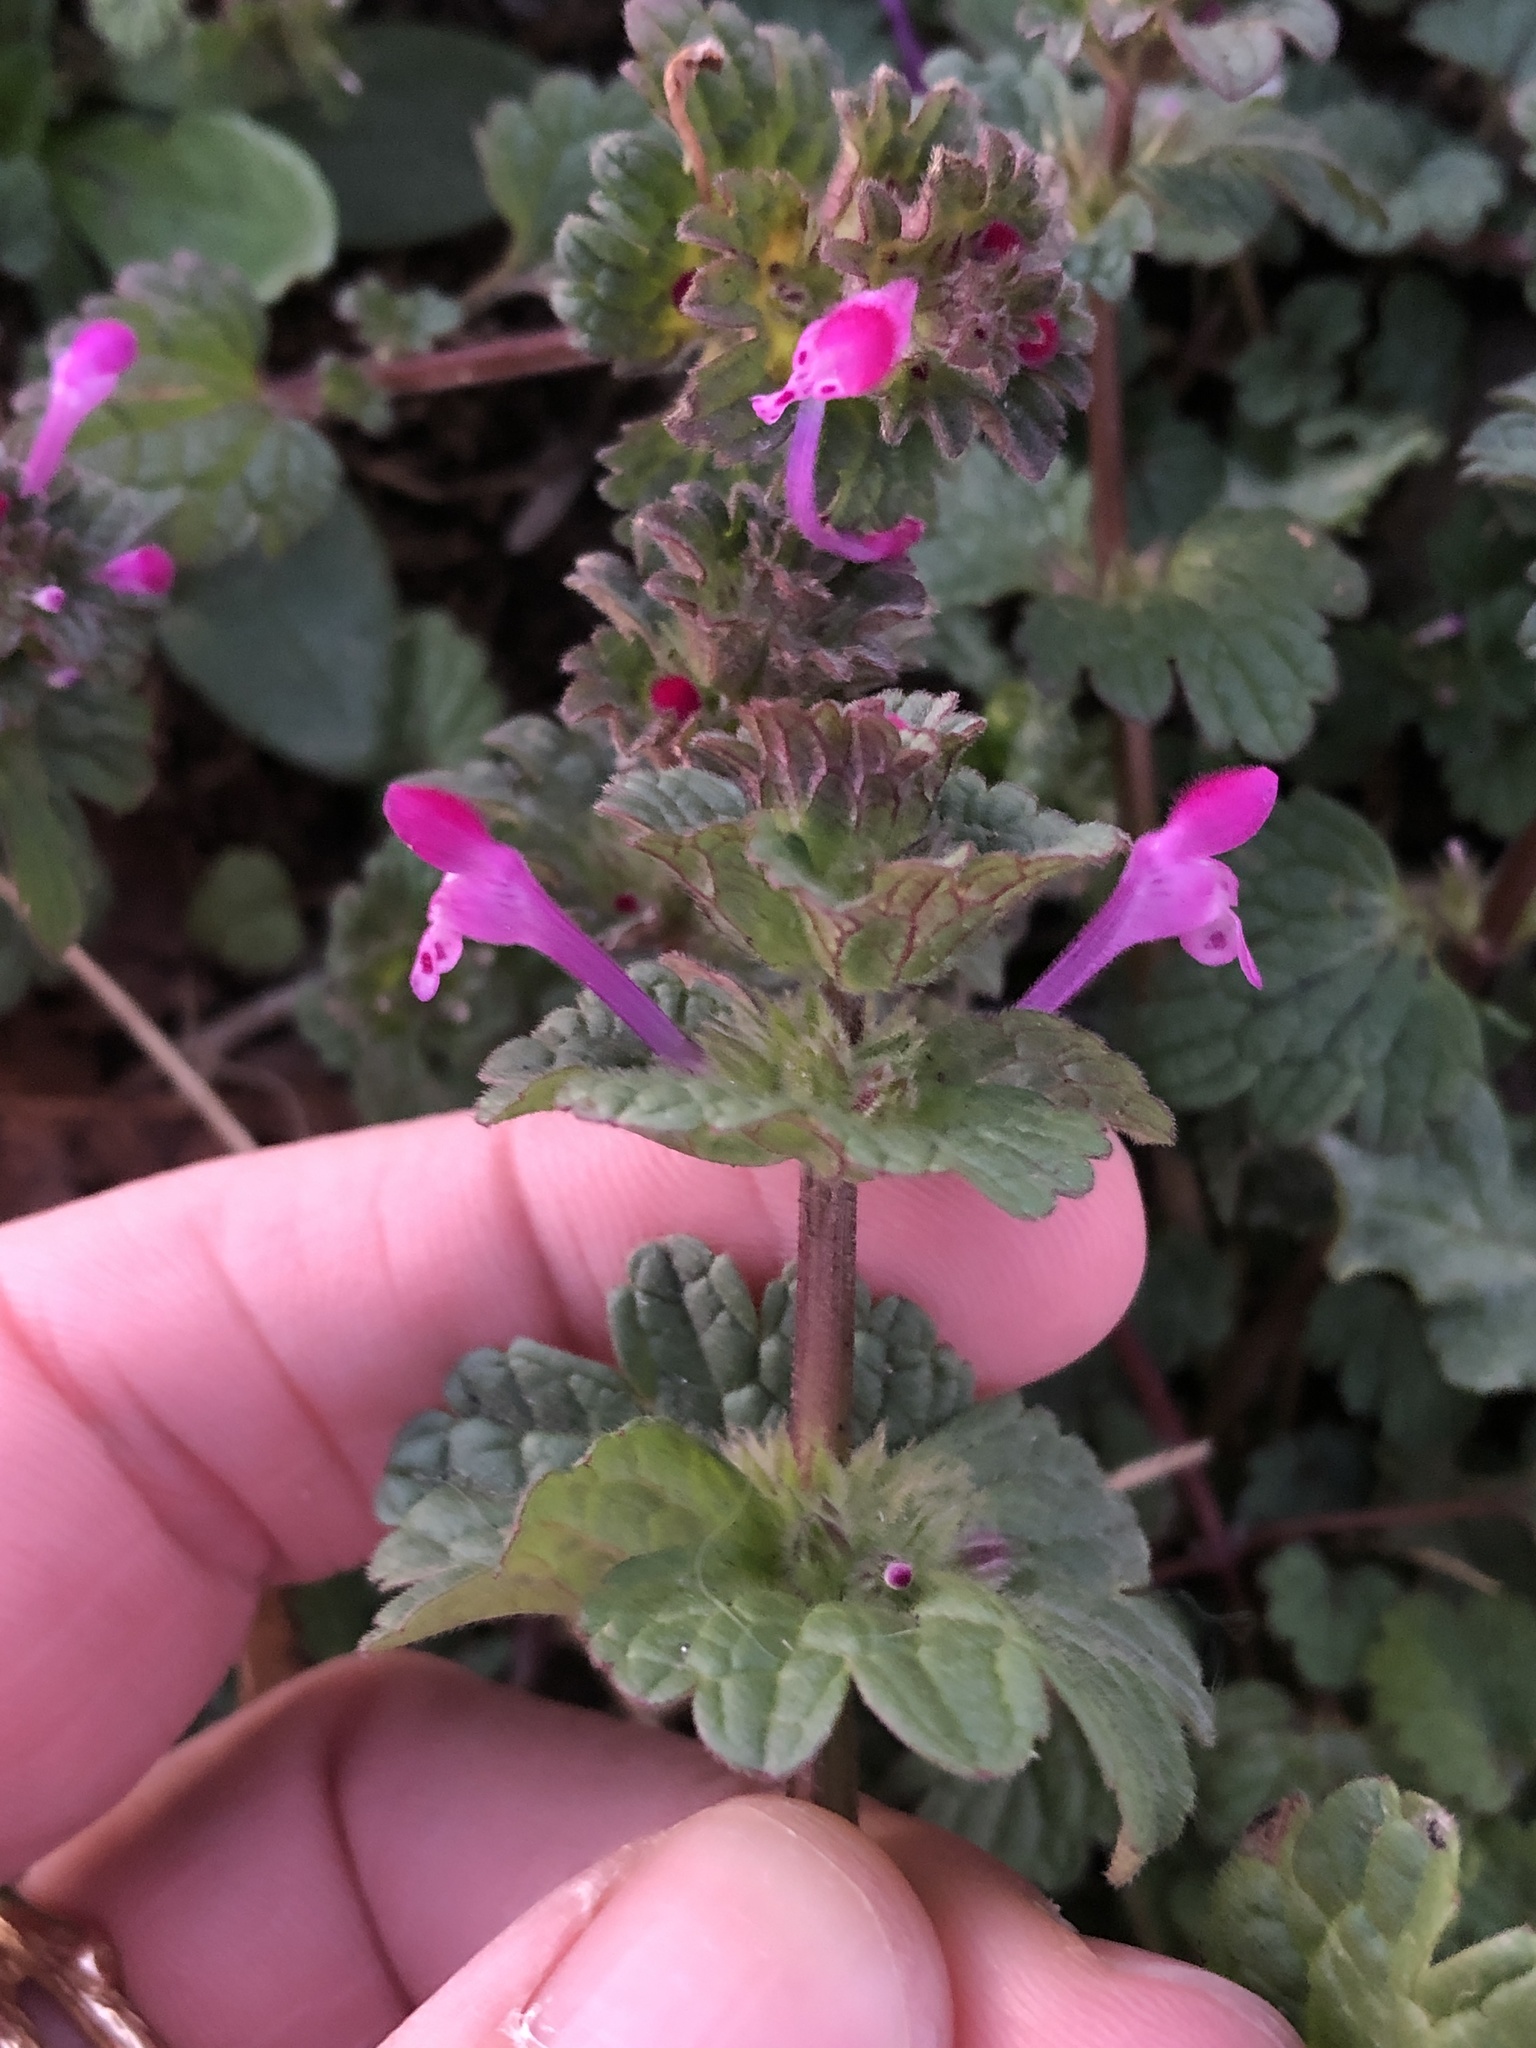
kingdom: Plantae
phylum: Tracheophyta
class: Magnoliopsida
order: Lamiales
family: Lamiaceae
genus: Lamium
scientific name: Lamium amplexicaule
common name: Henbit dead-nettle
